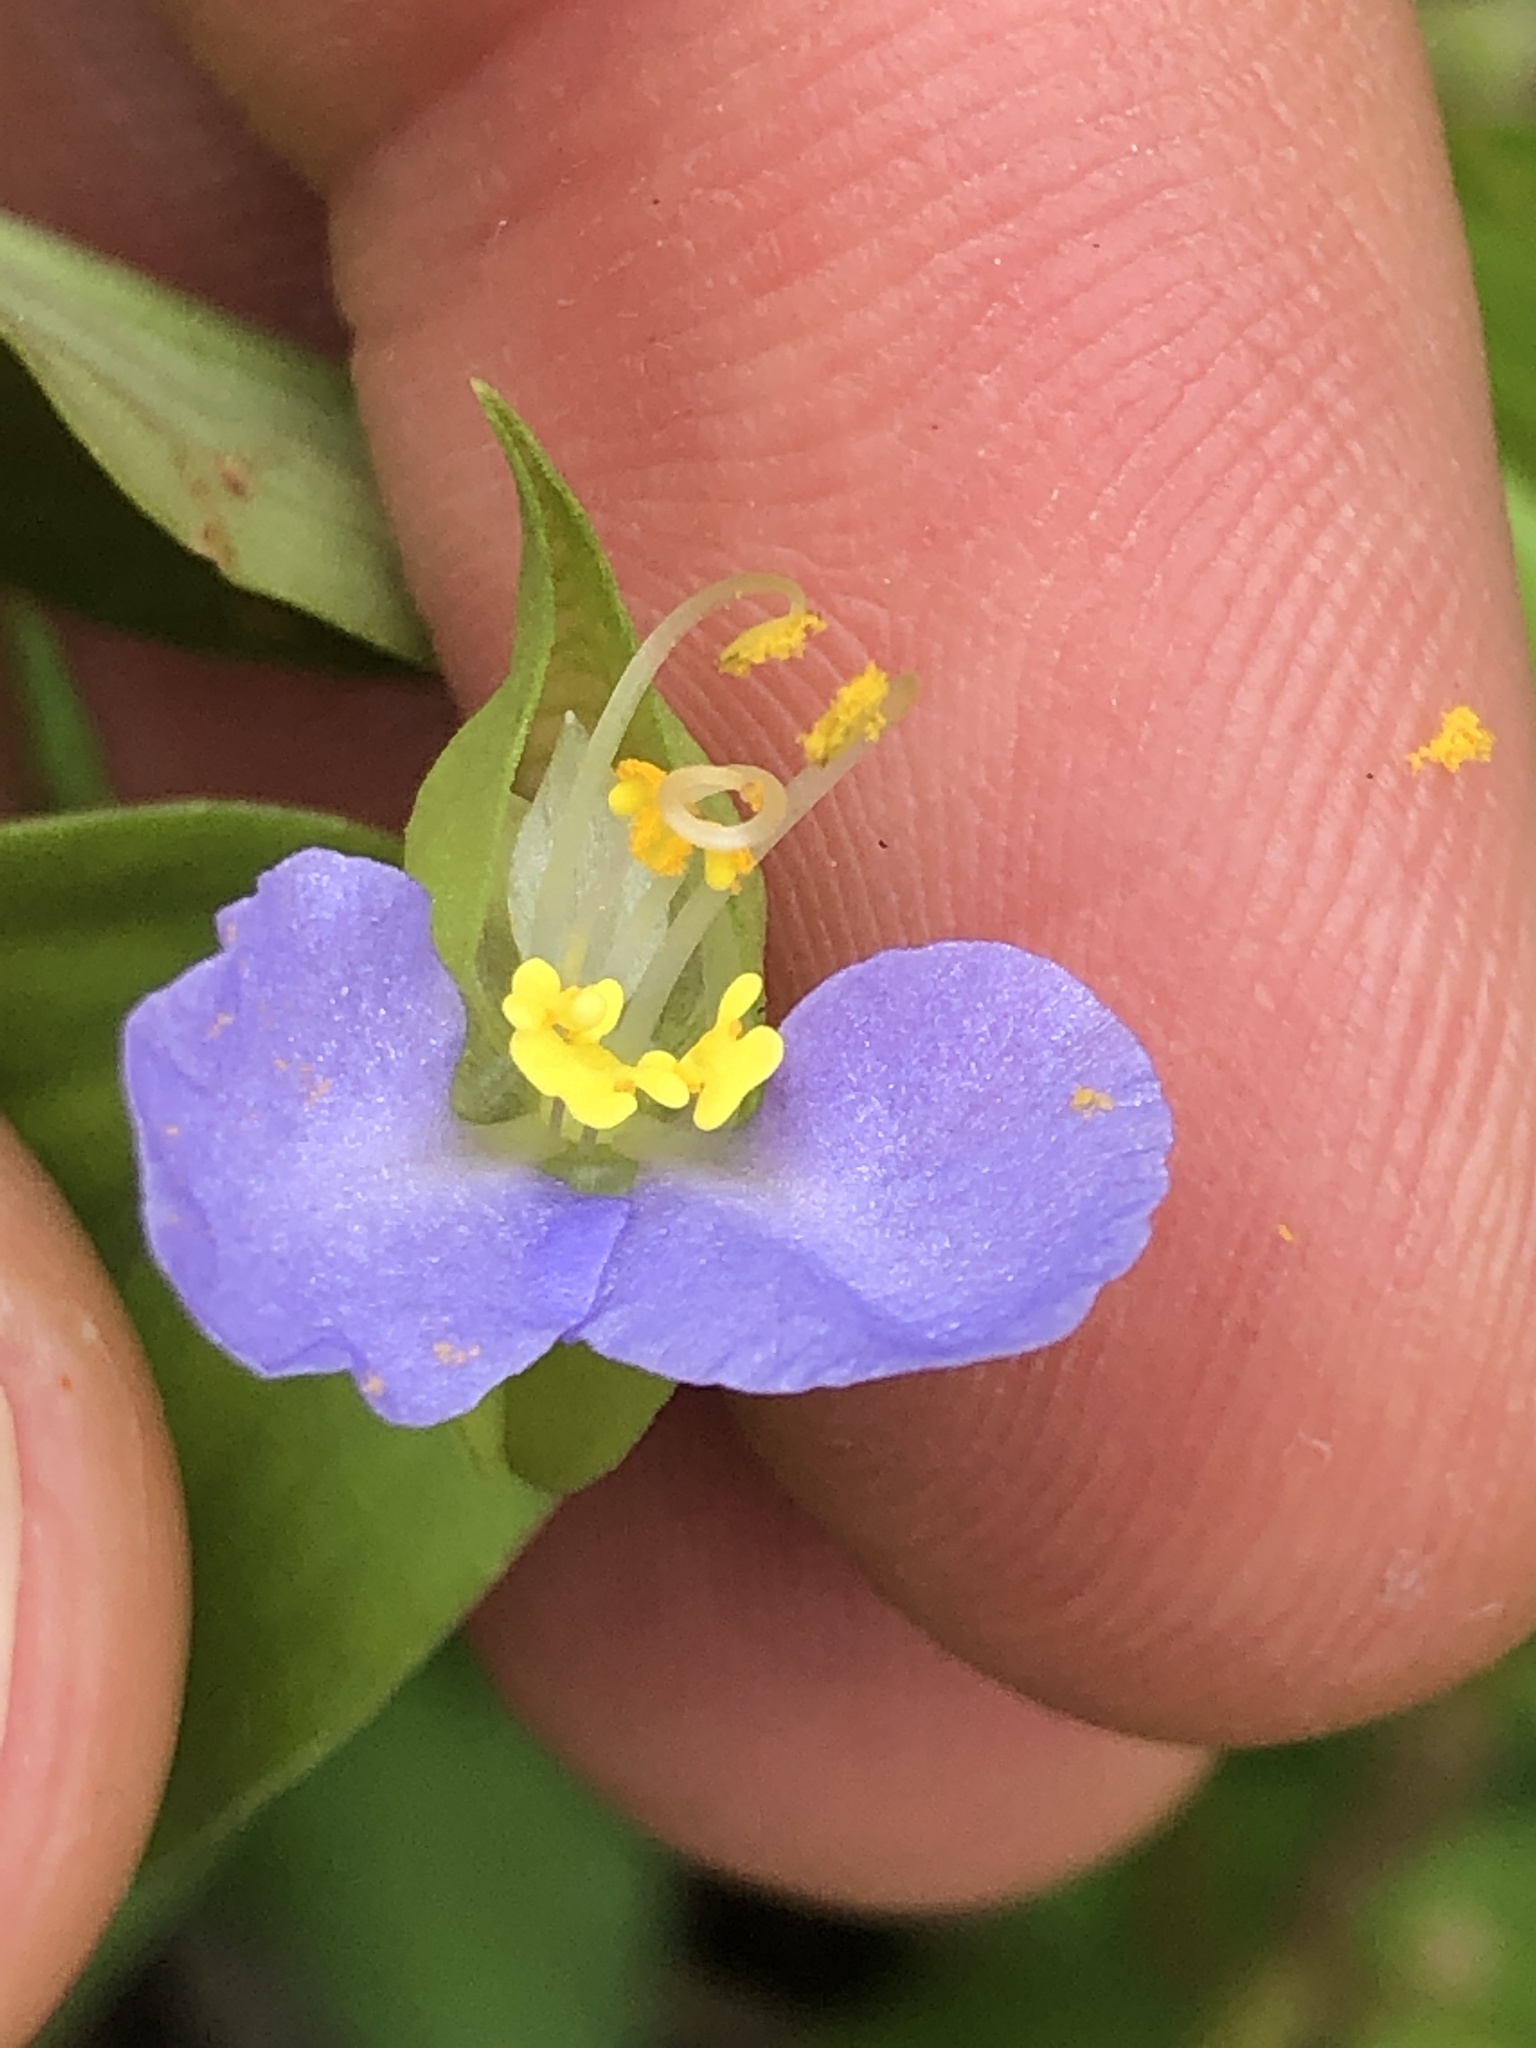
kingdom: Plantae
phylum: Tracheophyta
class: Liliopsida
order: Commelinales
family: Commelinaceae
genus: Commelina
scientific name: Commelina communis
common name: Asiatic dayflower
